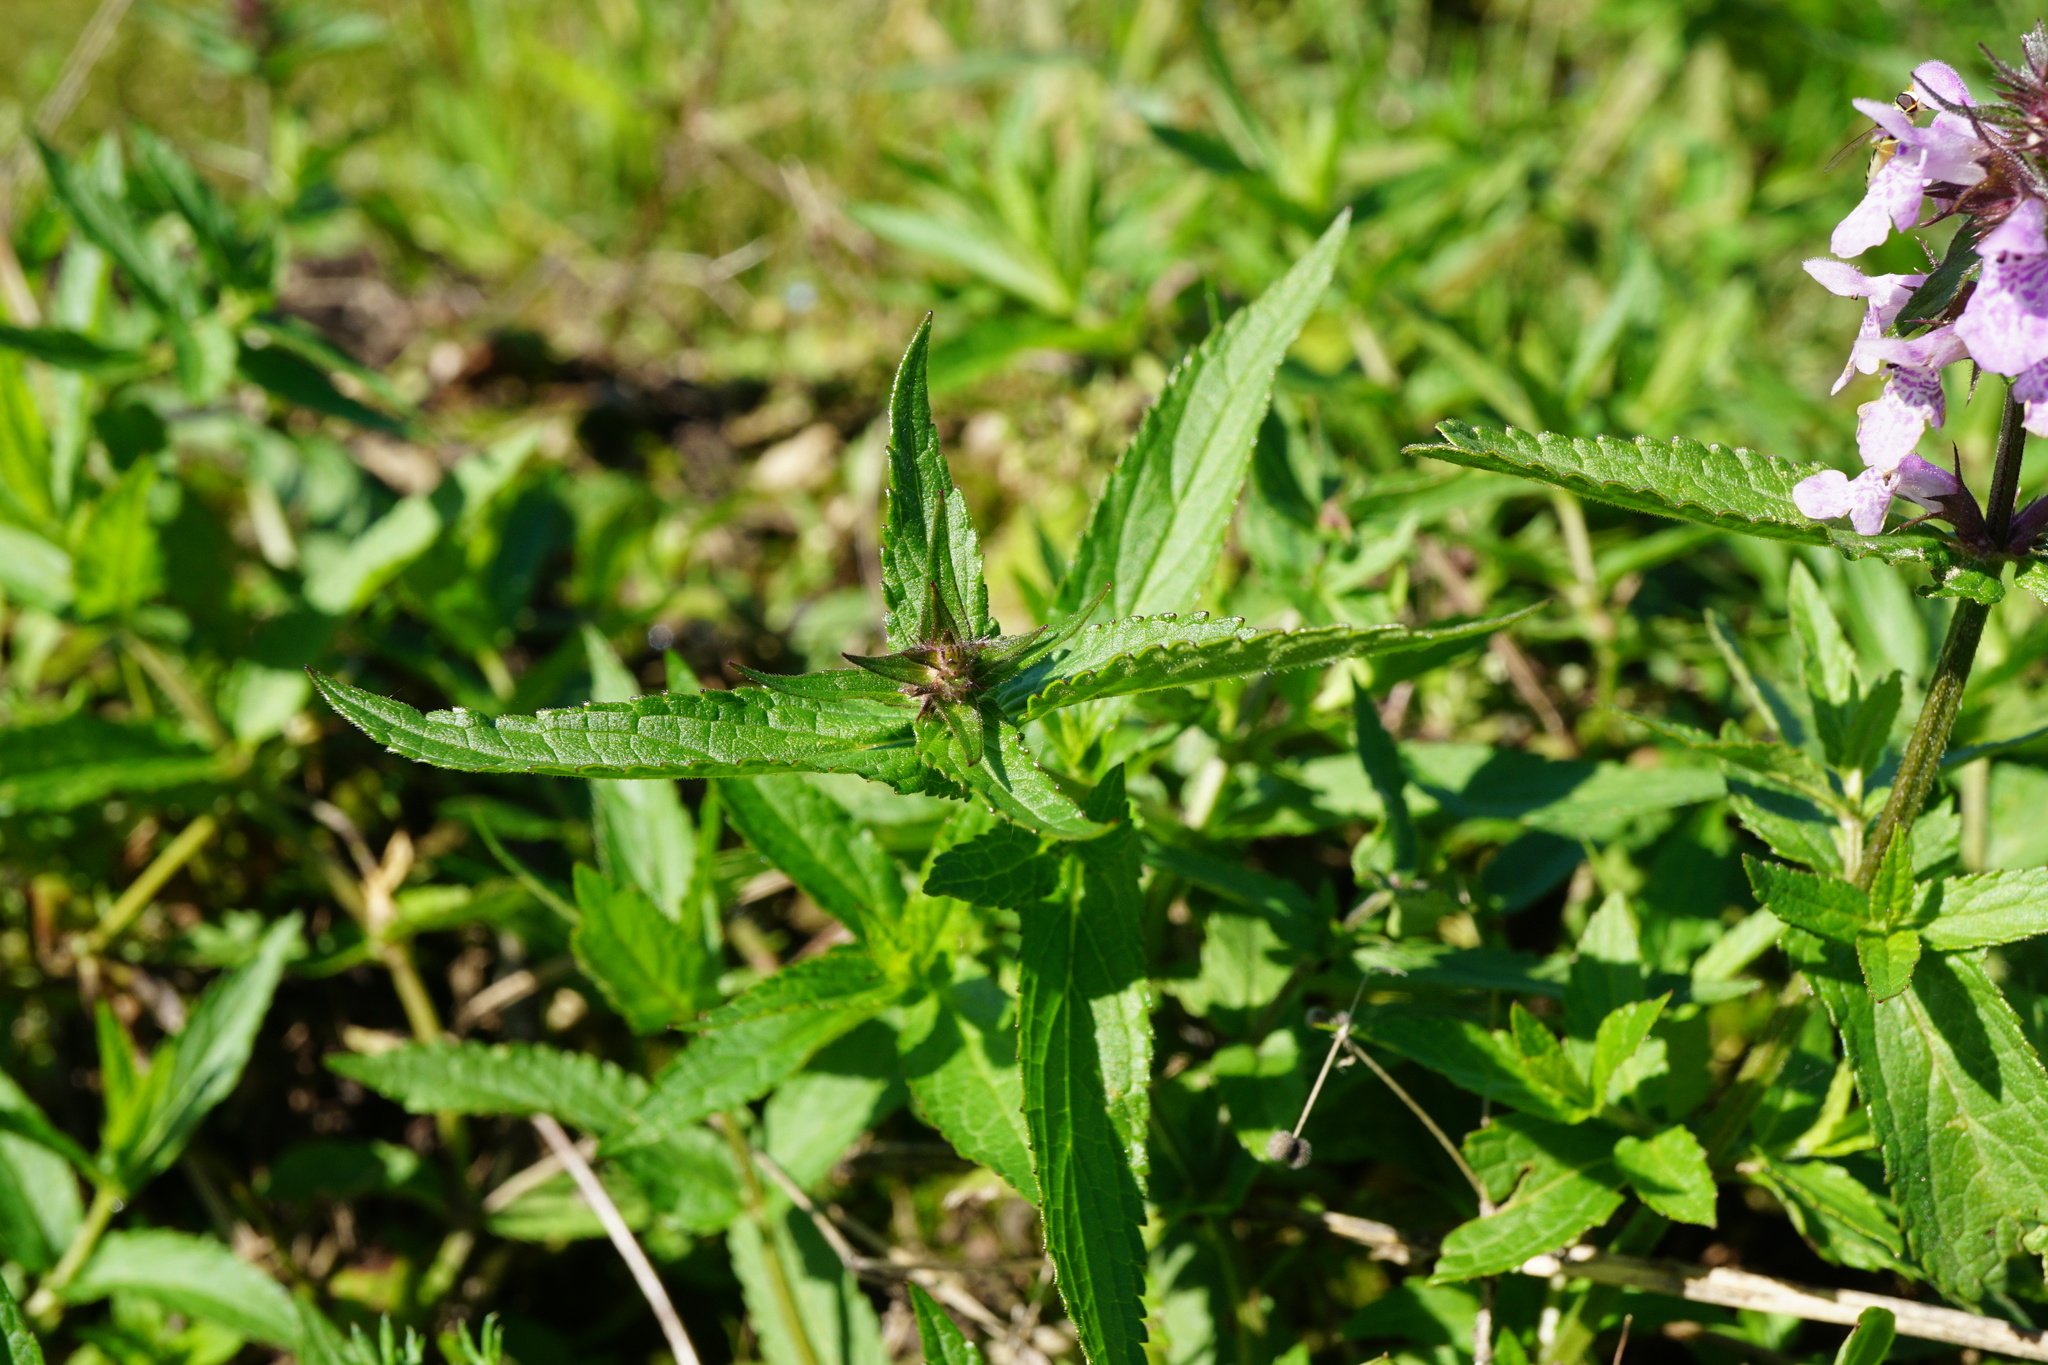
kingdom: Plantae
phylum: Tracheophyta
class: Magnoliopsida
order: Lamiales
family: Lamiaceae
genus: Stachys
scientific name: Stachys palustris
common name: Marsh woundwort
